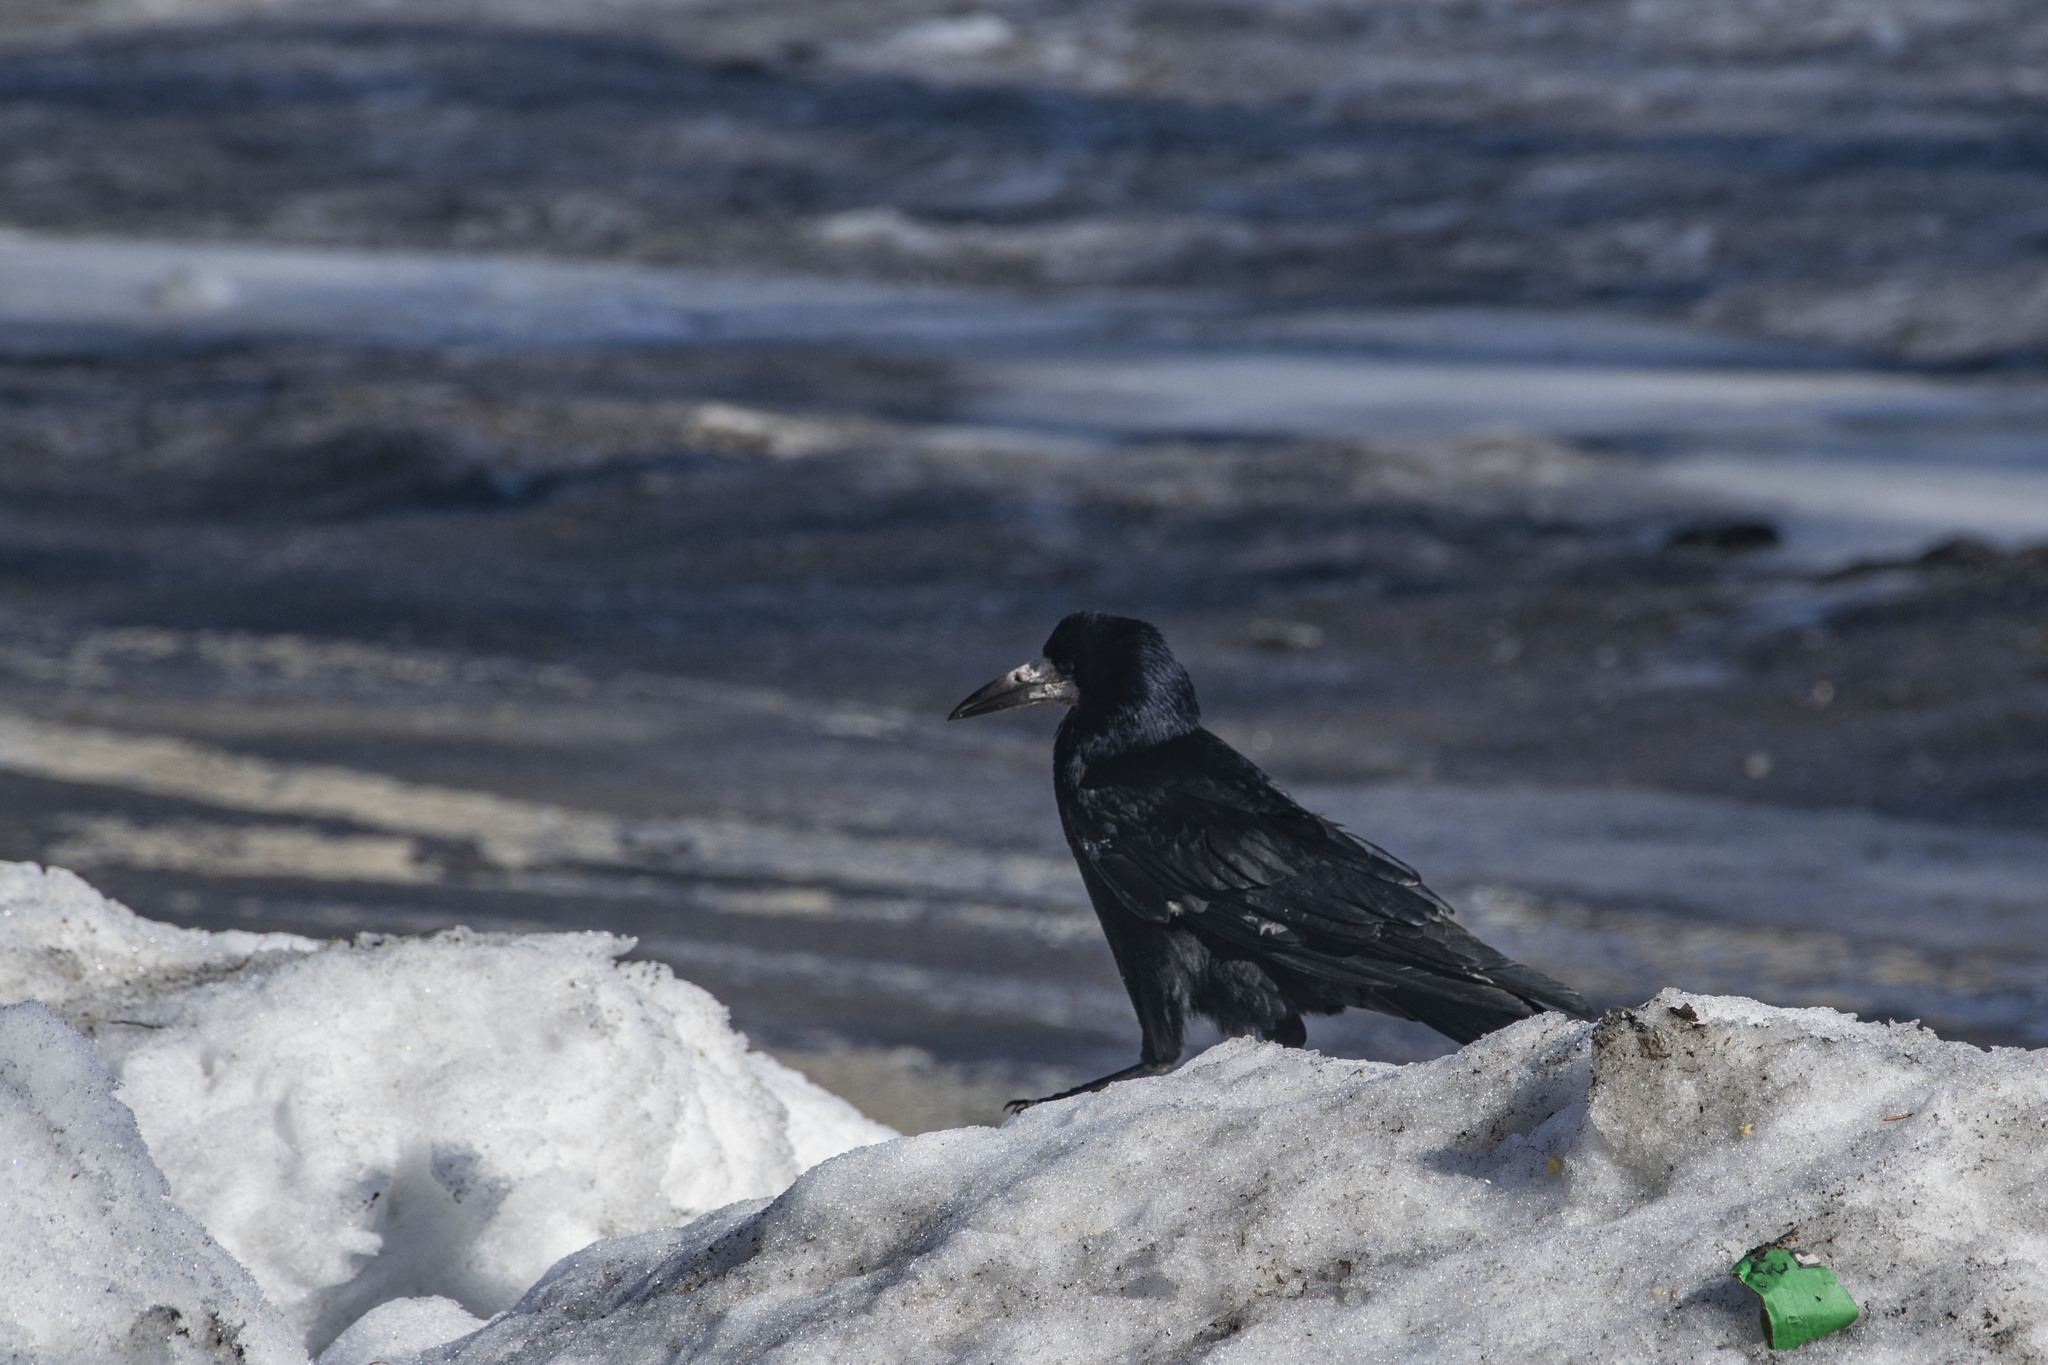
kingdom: Animalia
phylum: Chordata
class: Aves
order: Passeriformes
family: Corvidae
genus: Corvus
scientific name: Corvus frugilegus
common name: Rook
